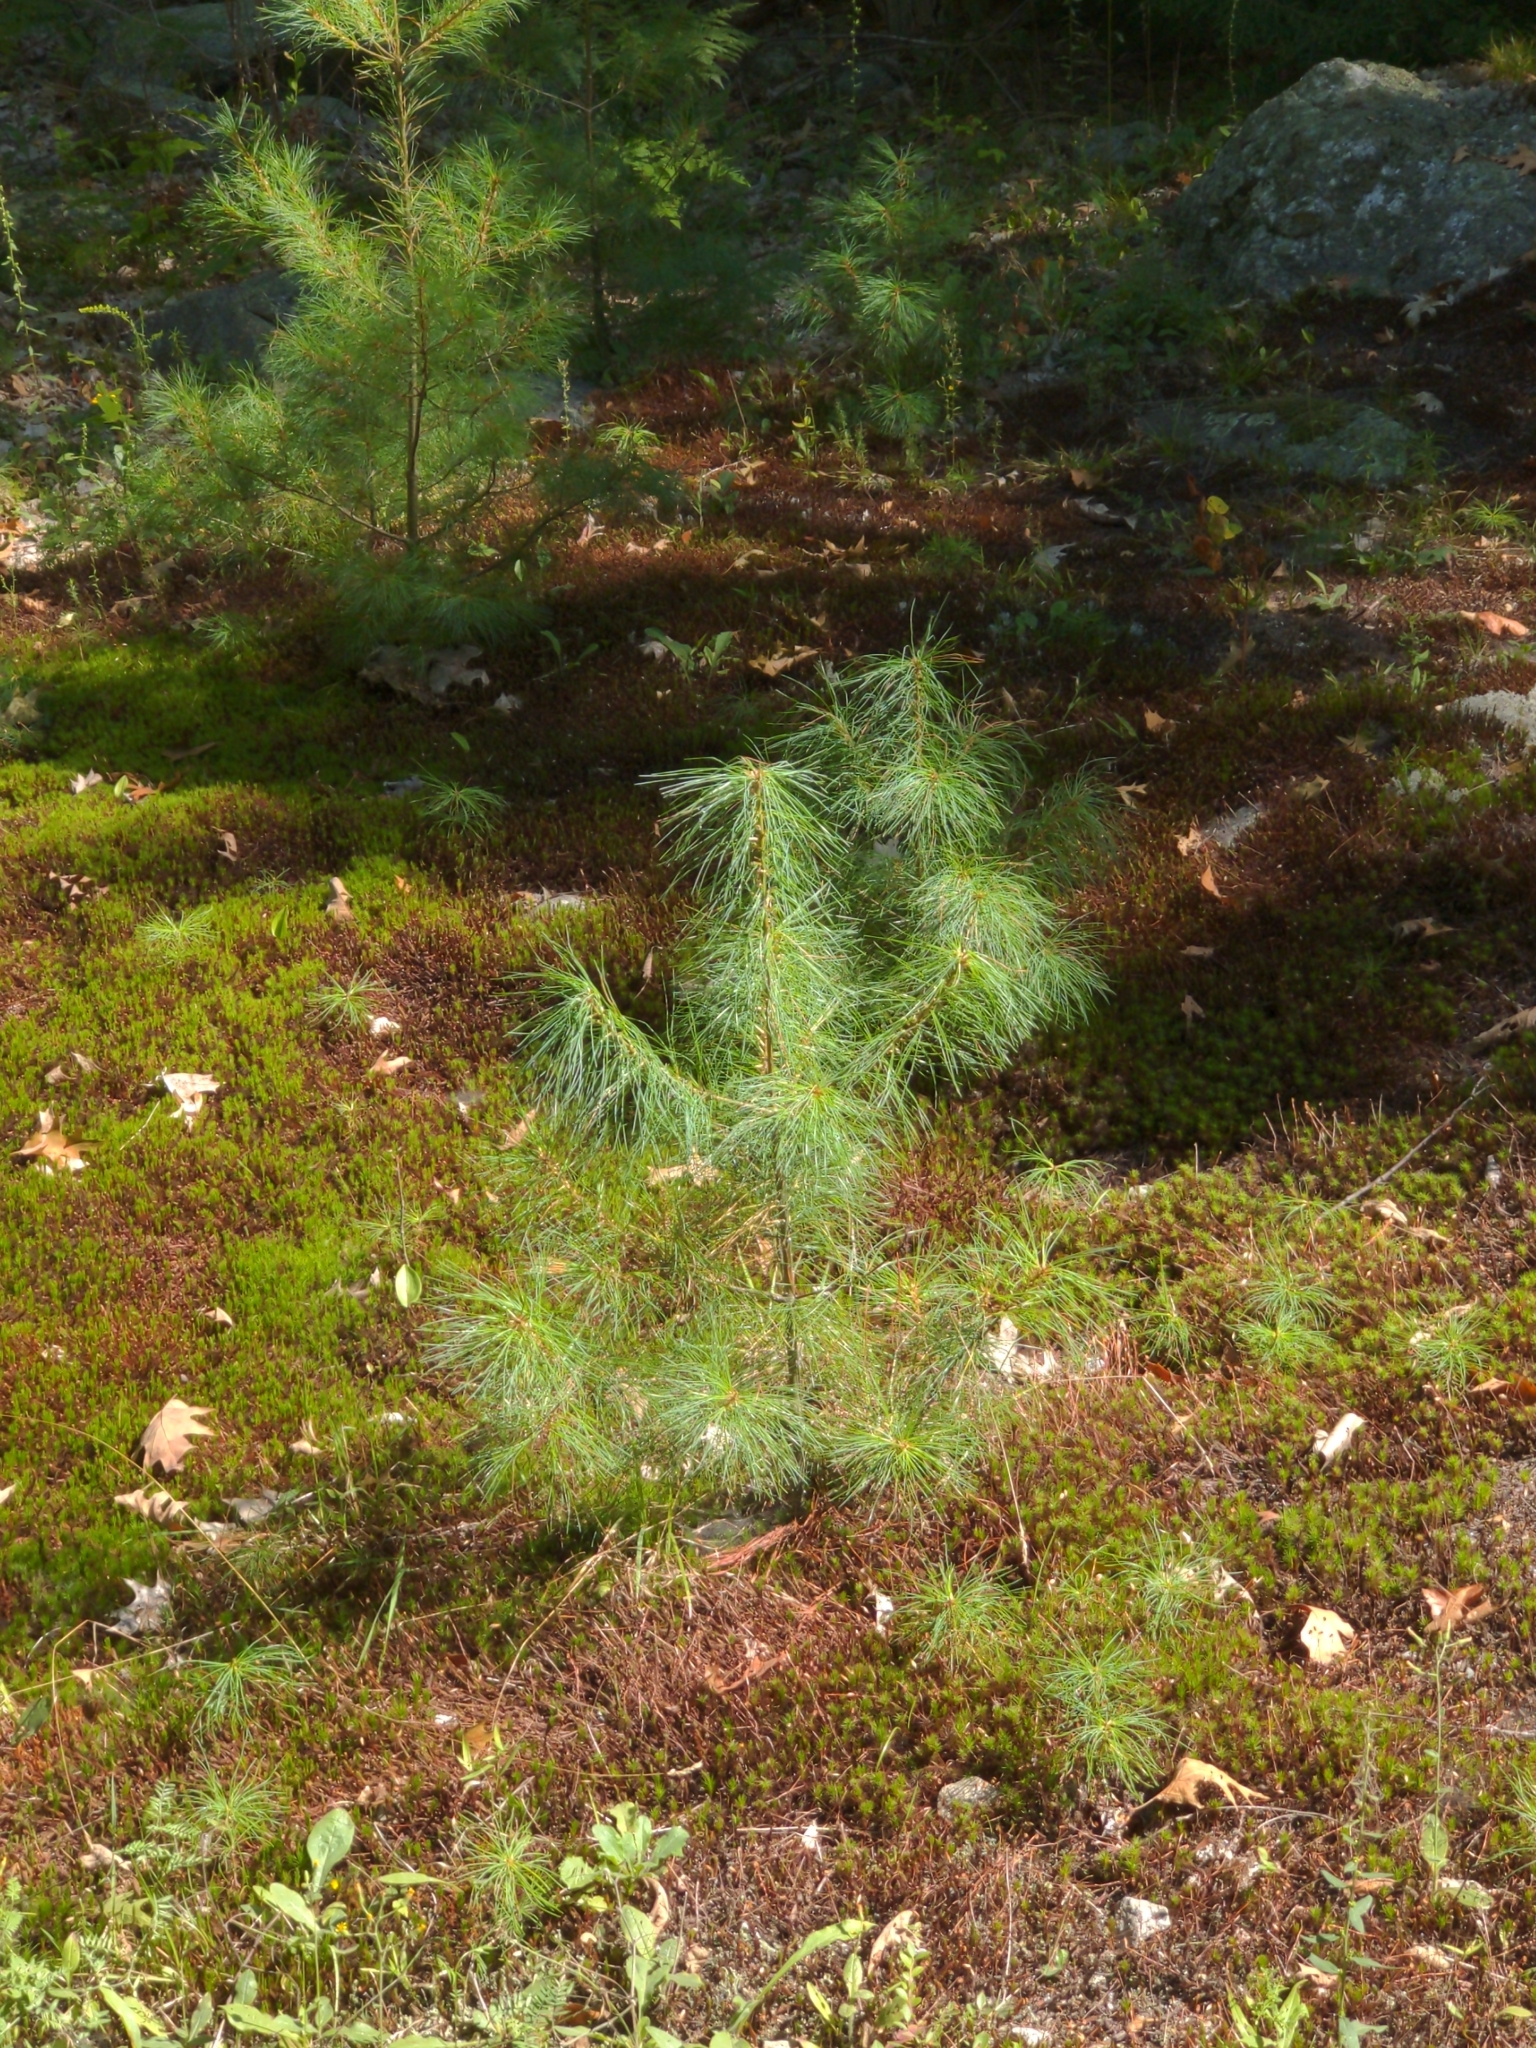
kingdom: Plantae
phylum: Tracheophyta
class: Pinopsida
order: Pinales
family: Pinaceae
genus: Pinus
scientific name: Pinus strobus
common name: Weymouth pine
